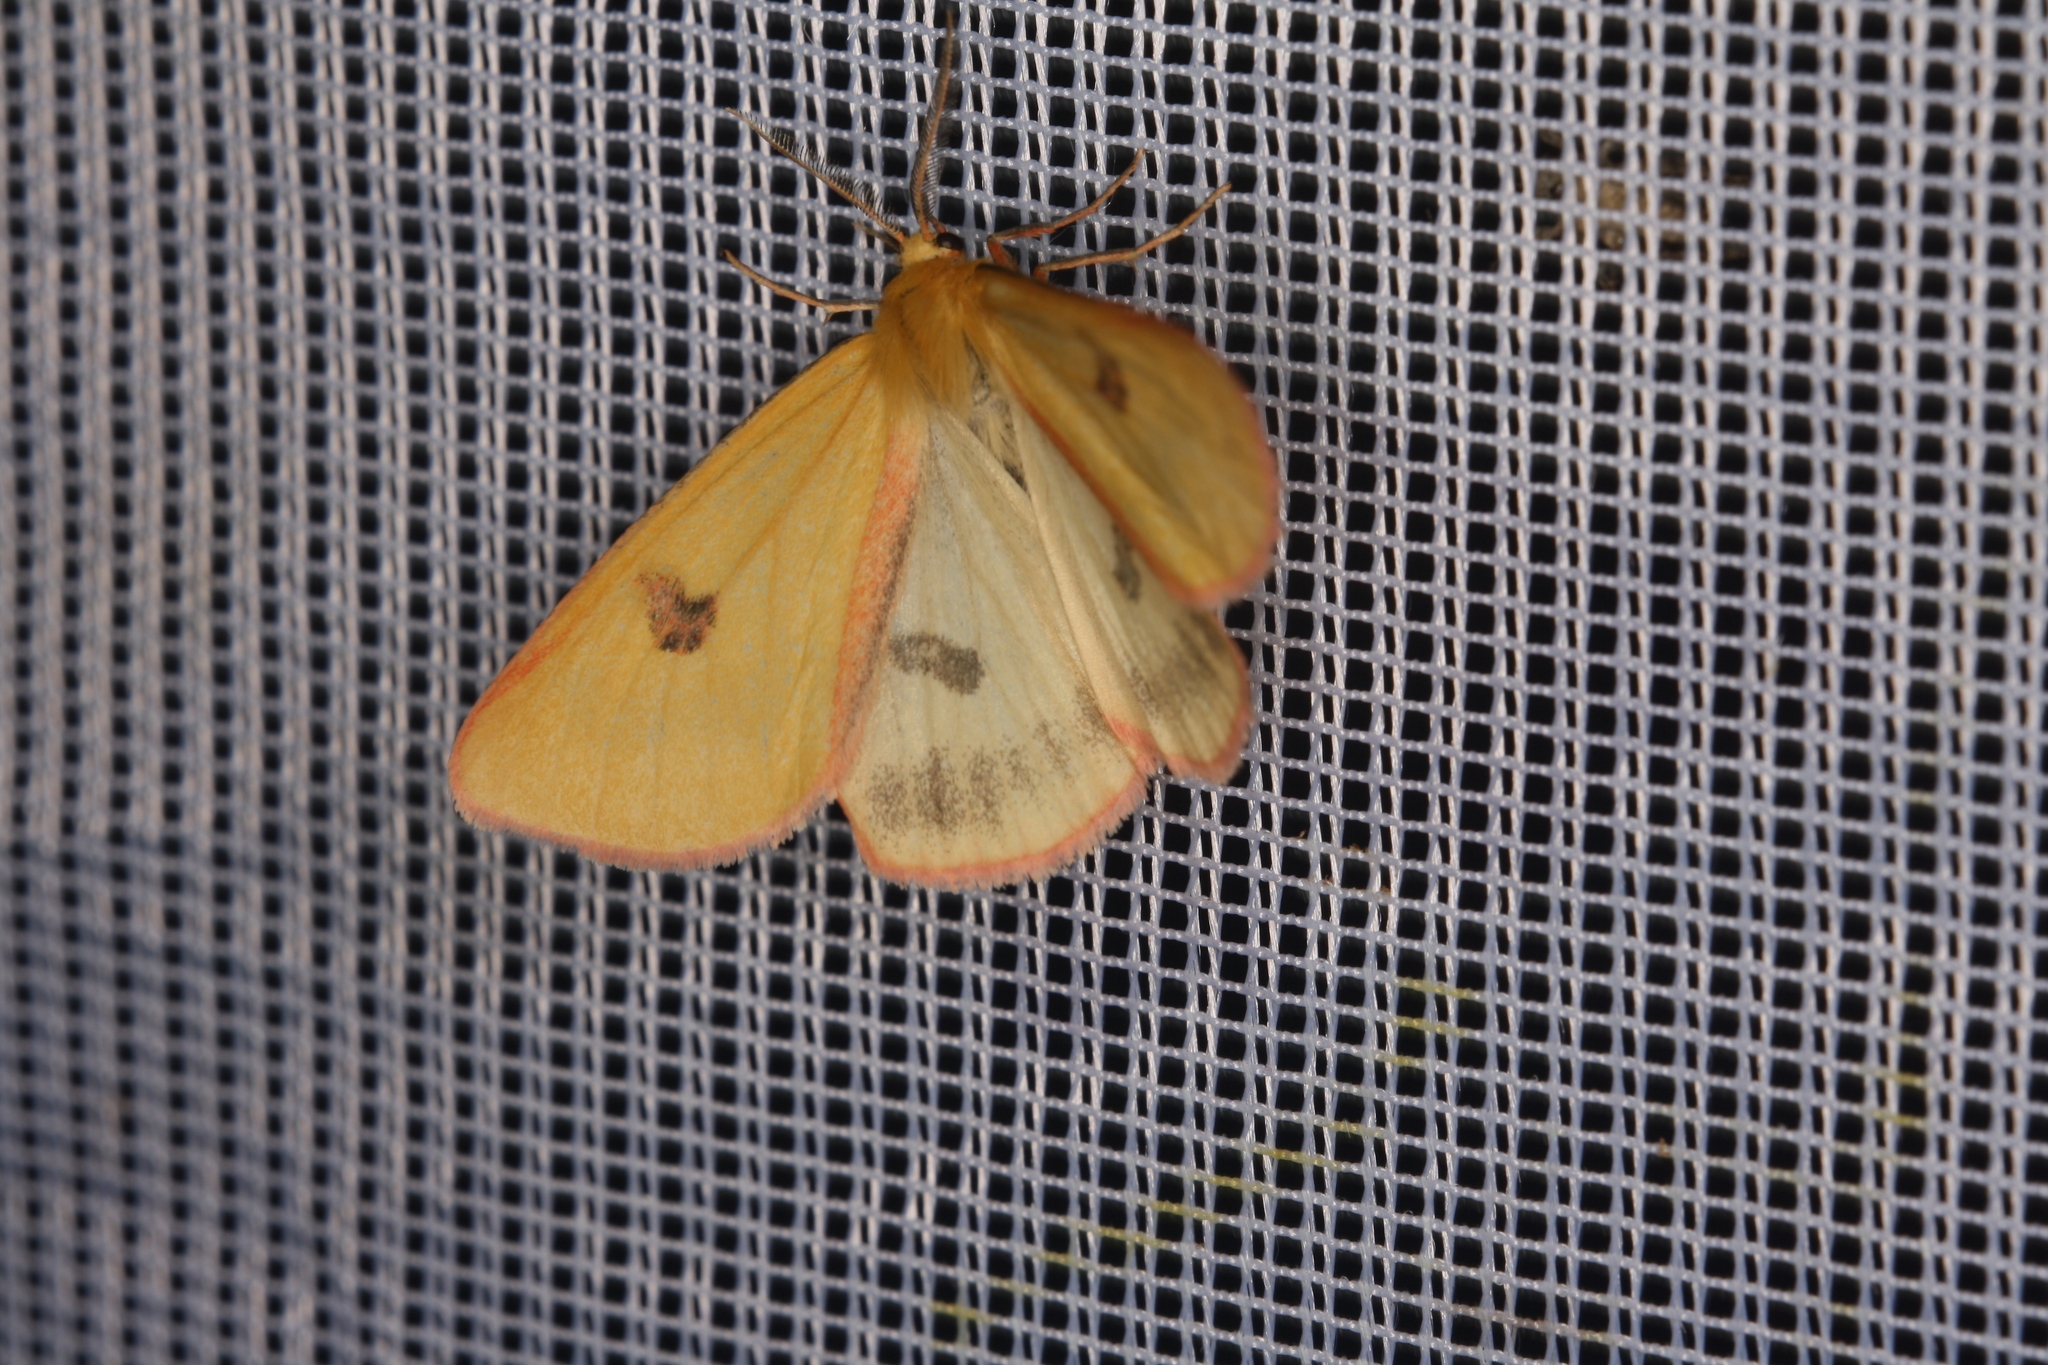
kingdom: Animalia
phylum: Arthropoda
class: Insecta
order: Lepidoptera
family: Erebidae
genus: Diacrisia
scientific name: Diacrisia sannio
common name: Clouded buff
